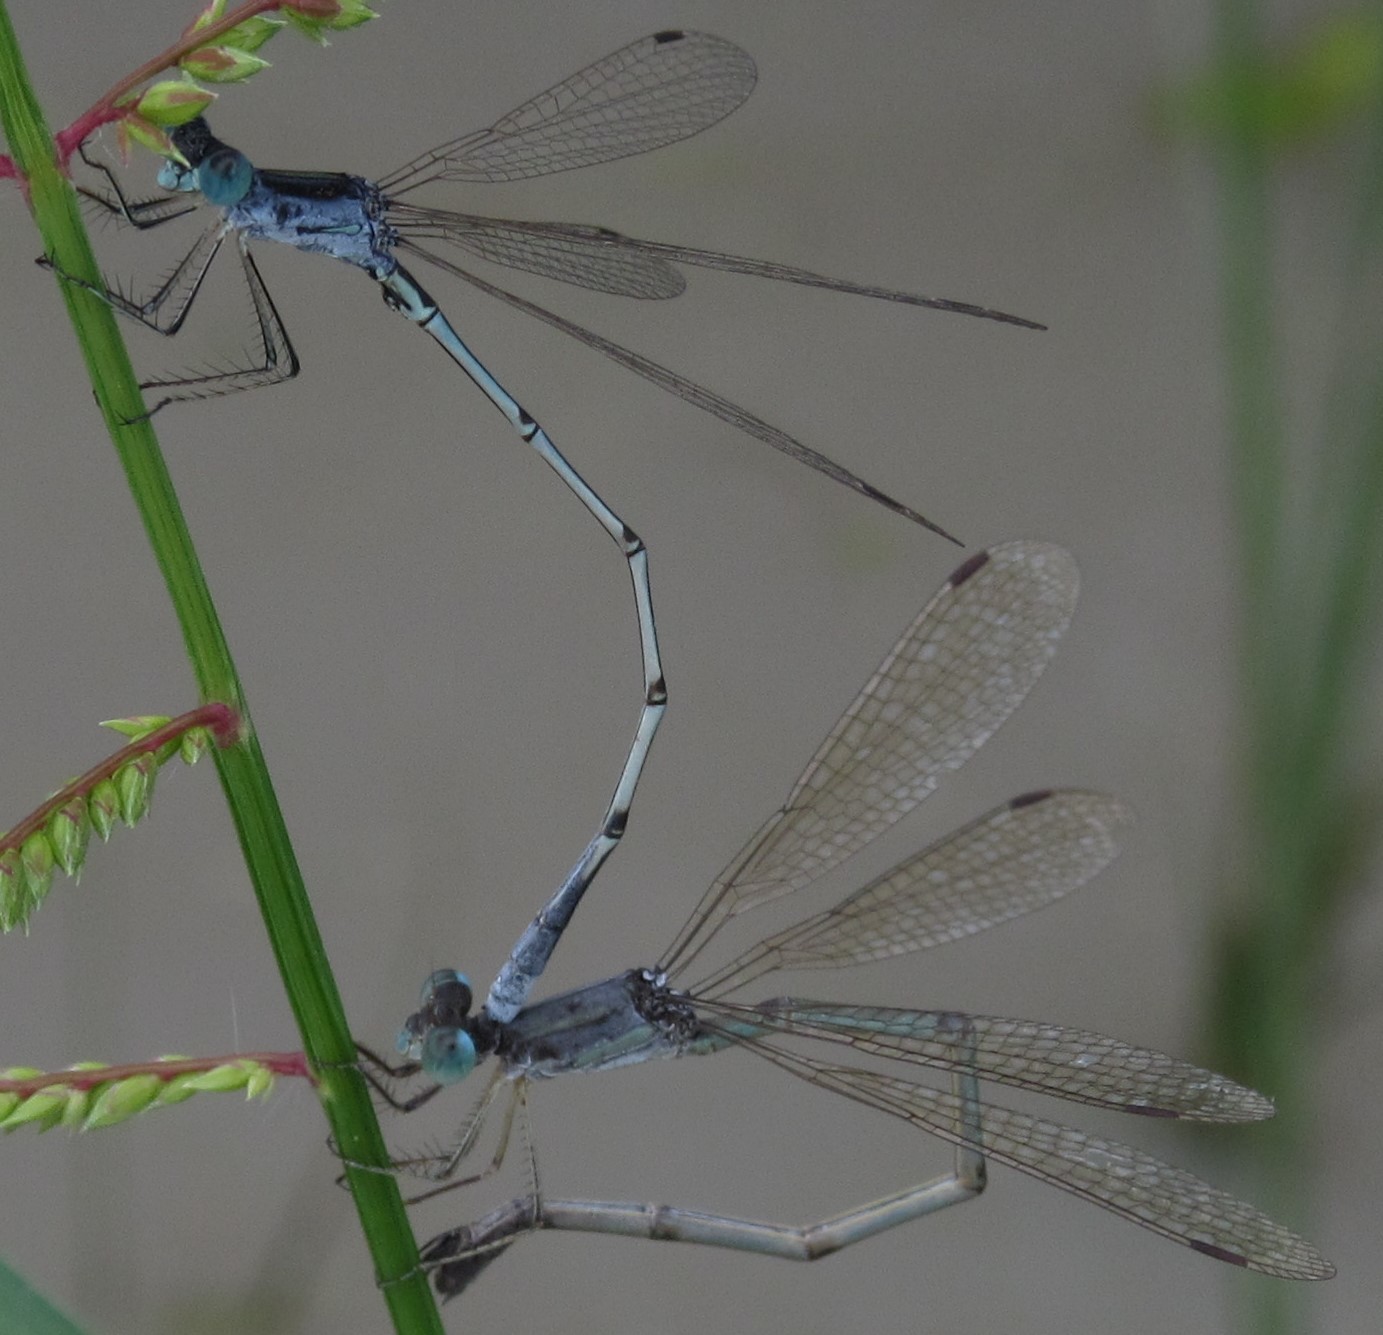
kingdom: Animalia
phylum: Arthropoda
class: Insecta
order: Odonata
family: Lestidae
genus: Lestes
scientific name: Lestes pallidus
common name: Pallid spreadwing
